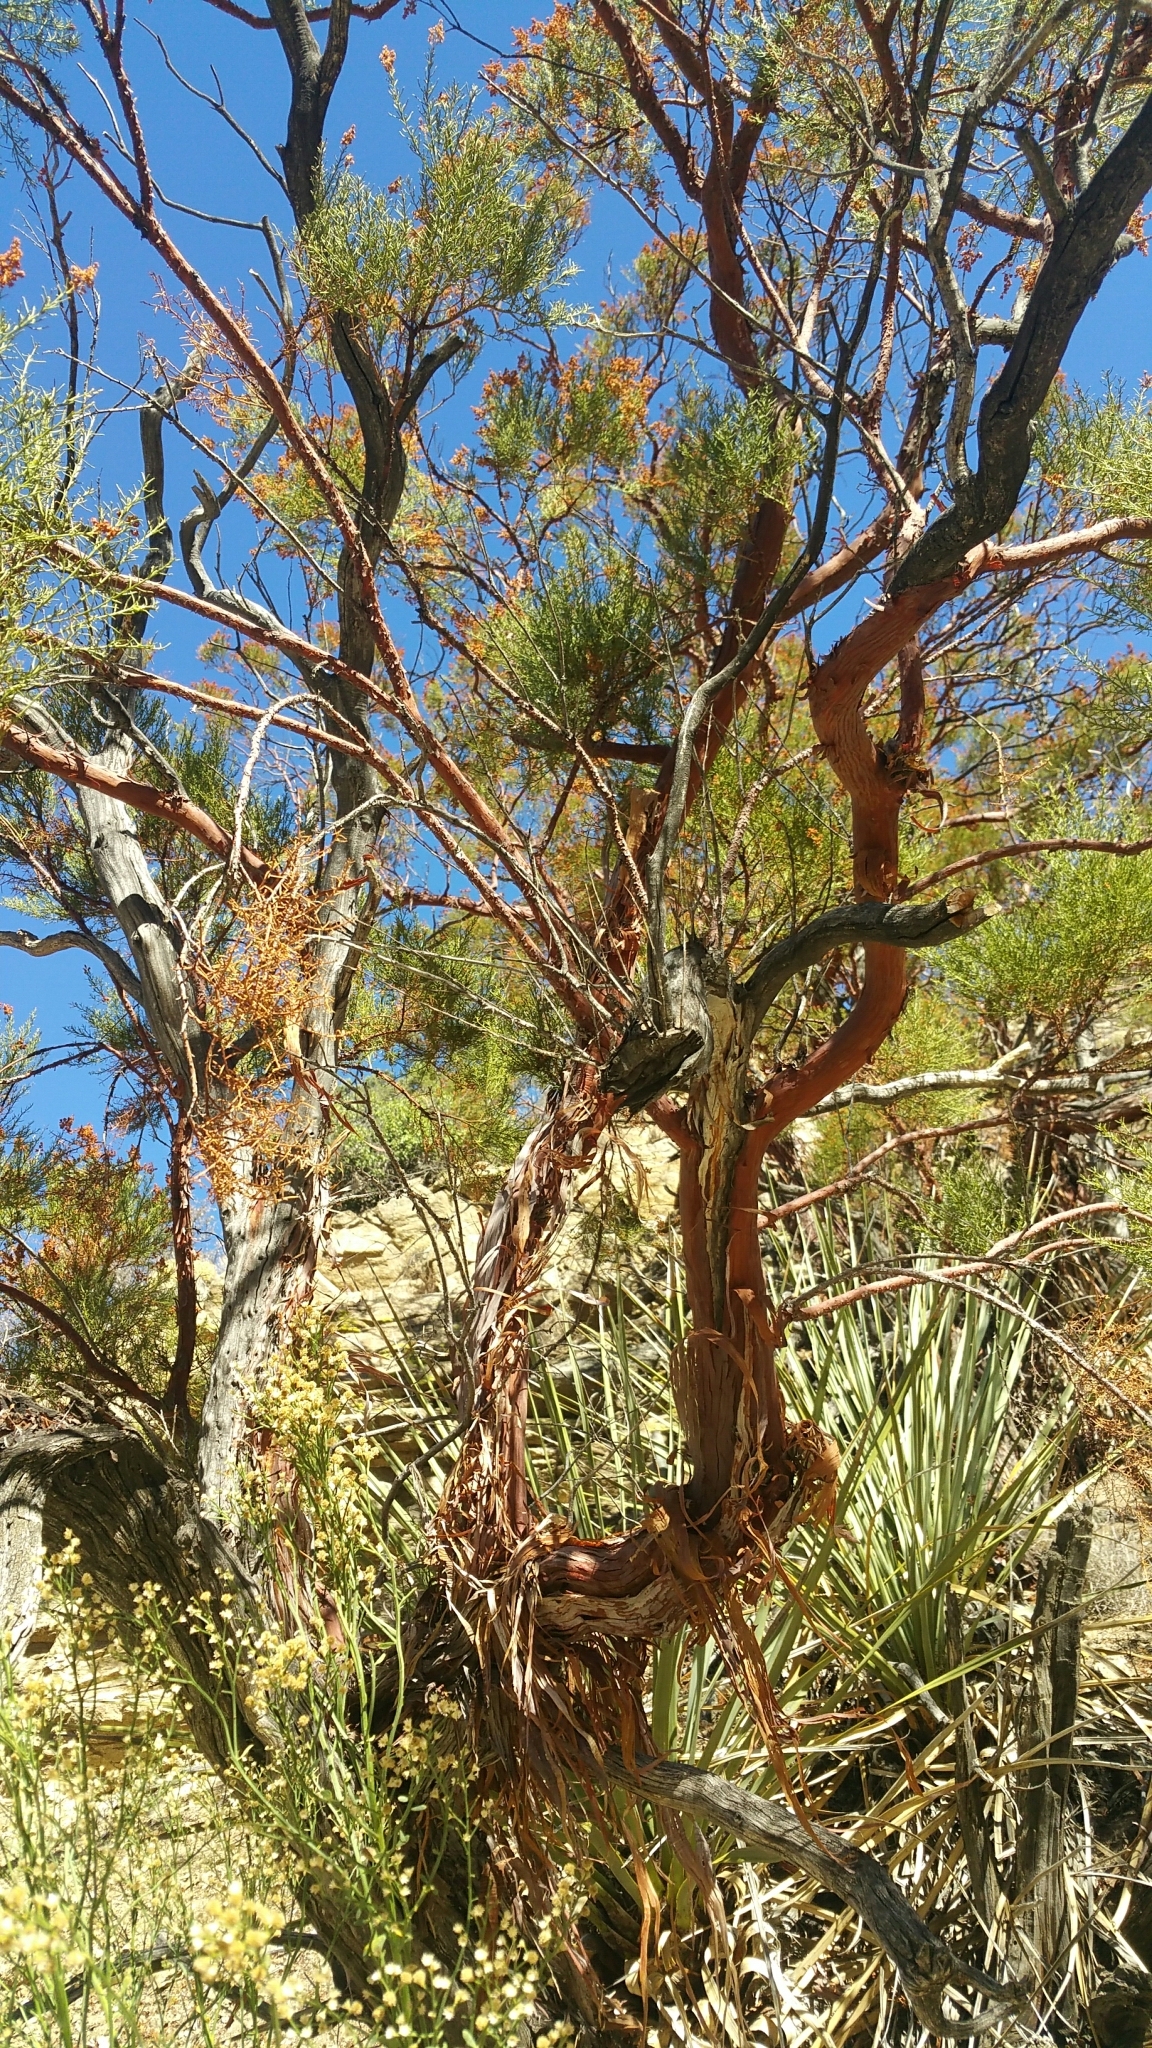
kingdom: Plantae
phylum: Tracheophyta
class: Magnoliopsida
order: Rosales
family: Rosaceae
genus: Adenostoma
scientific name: Adenostoma sparsifolium
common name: Red shank
